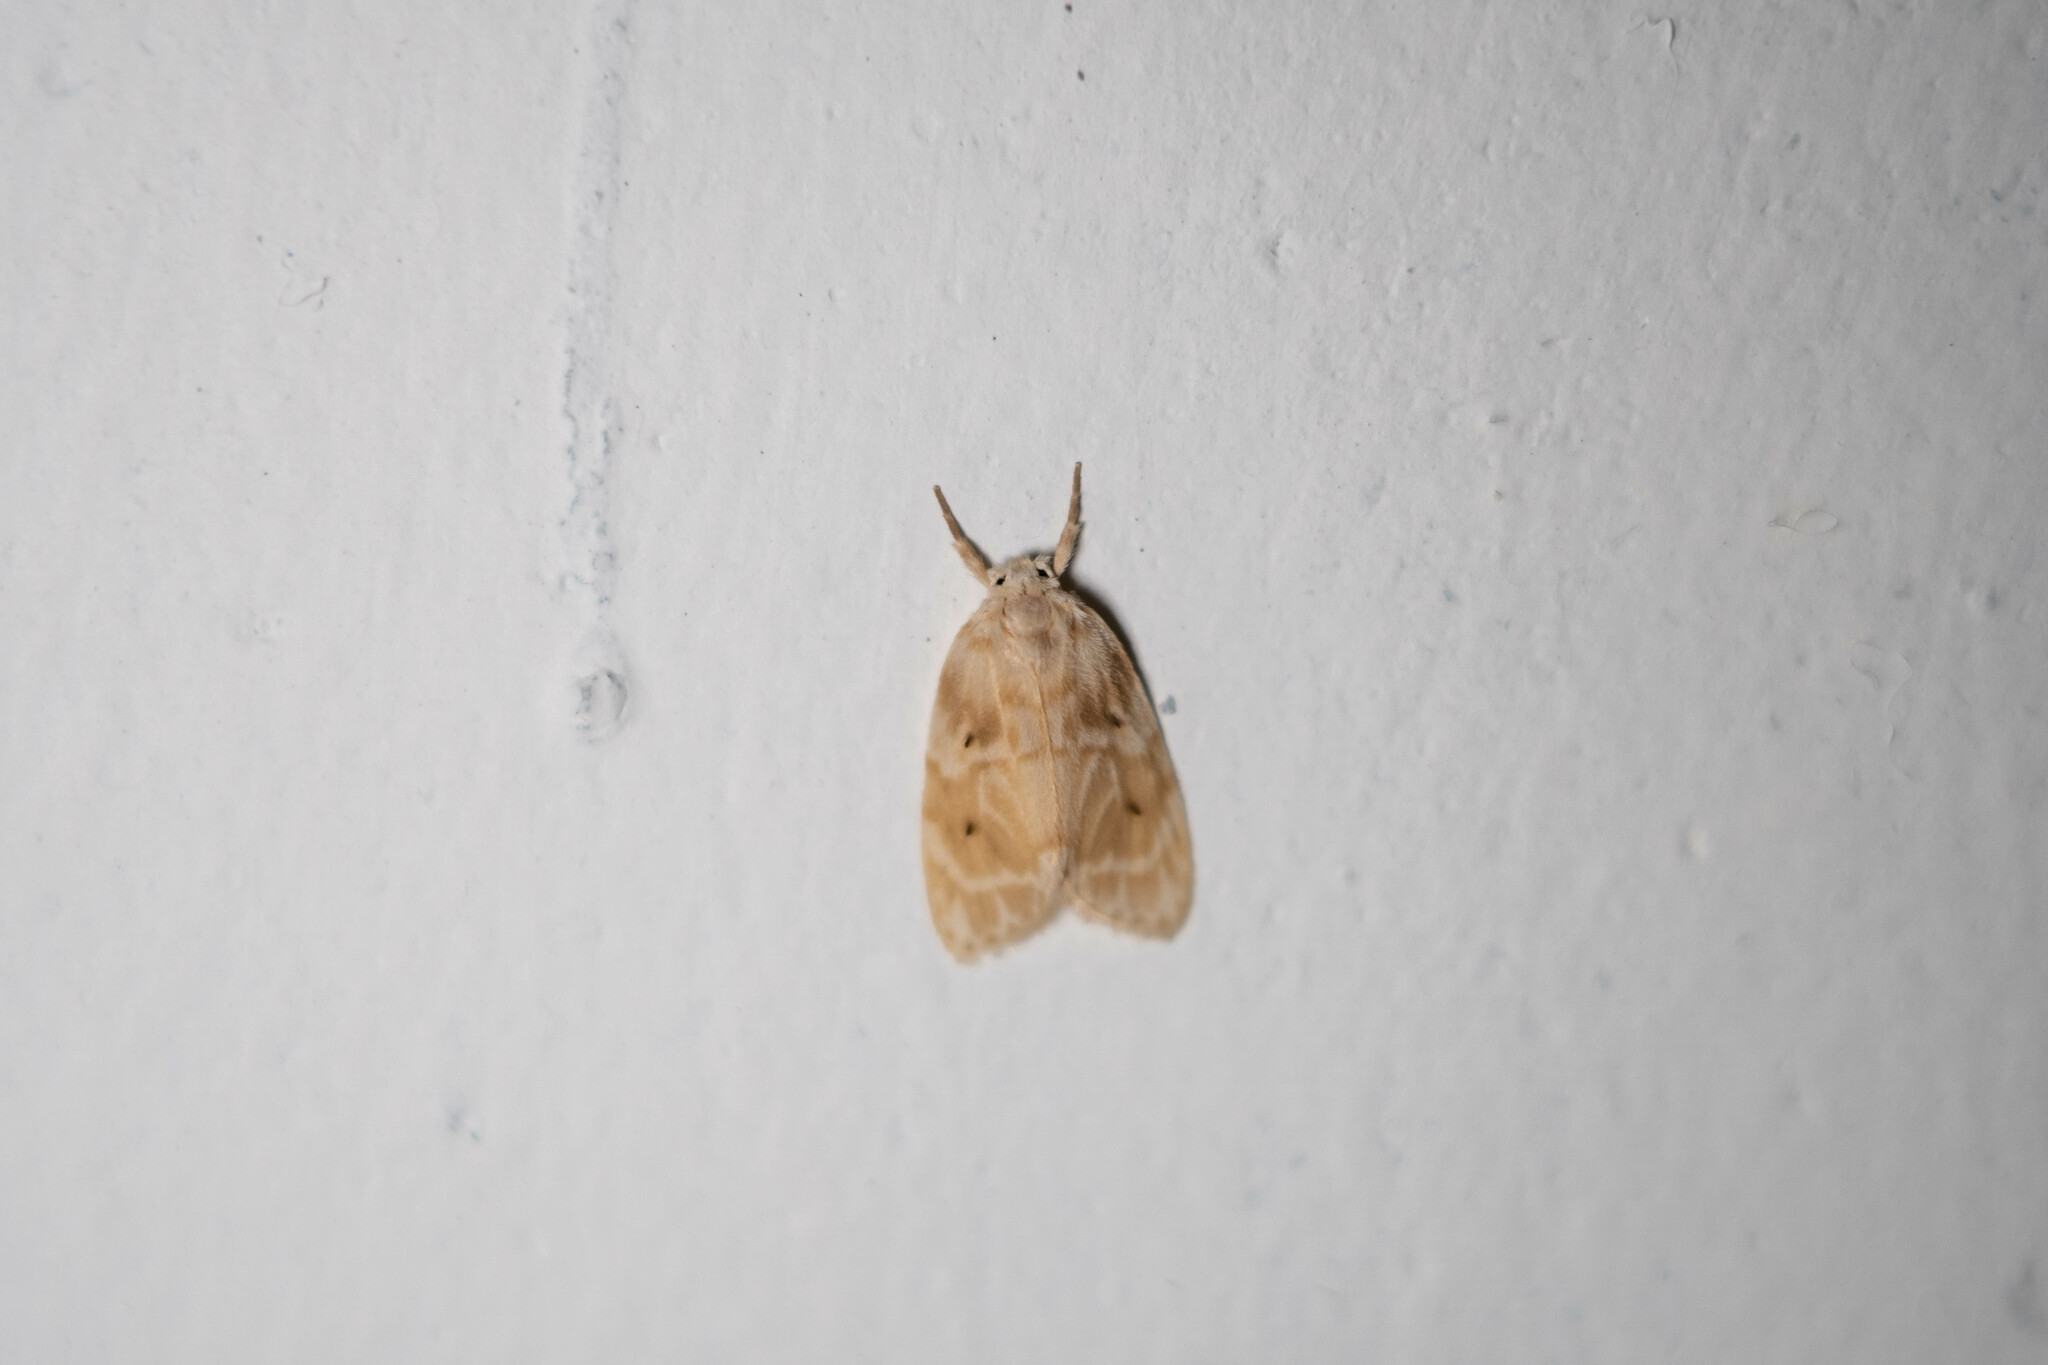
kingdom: Animalia
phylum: Arthropoda
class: Insecta
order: Lepidoptera
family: Erebidae
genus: Schistophleps
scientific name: Schistophleps bipuncta
